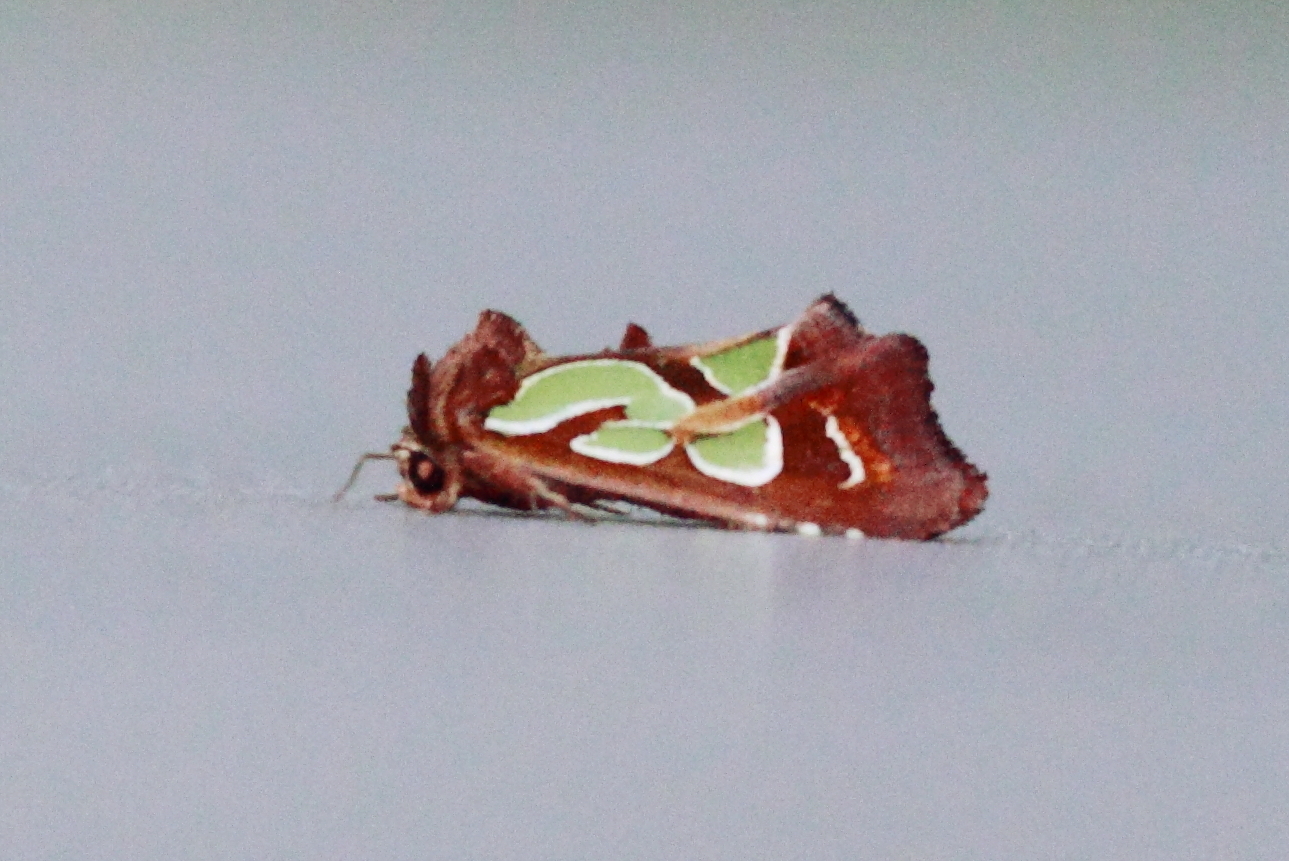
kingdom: Animalia
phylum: Arthropoda
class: Insecta
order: Lepidoptera
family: Noctuidae
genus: Cosmodes
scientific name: Cosmodes elegans
